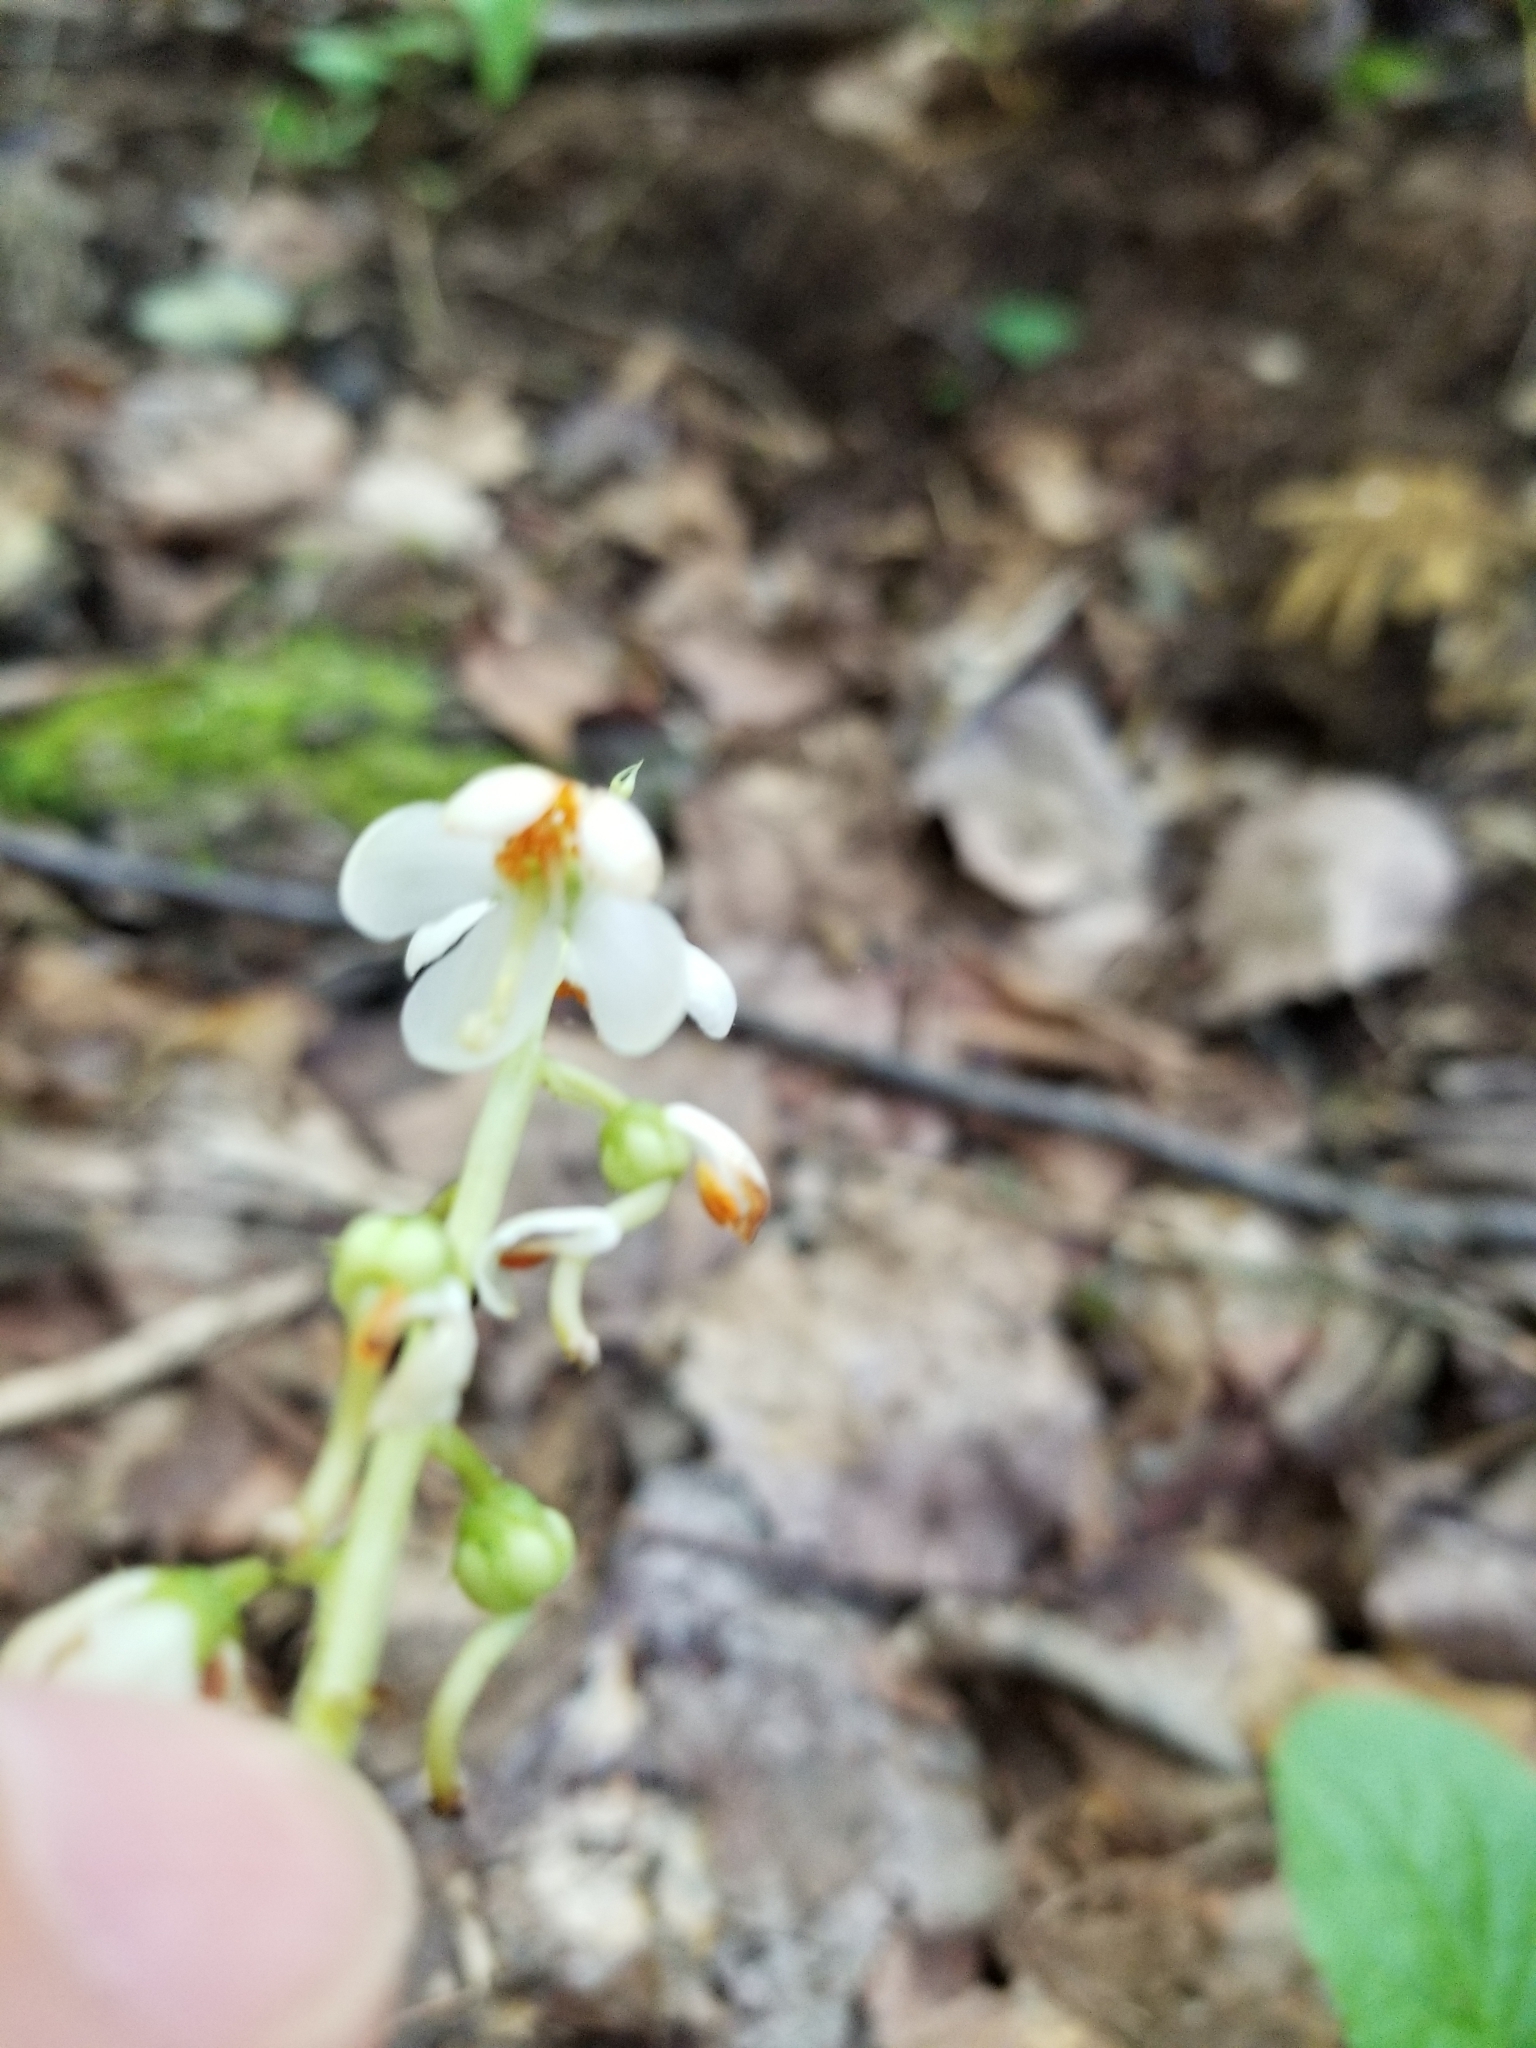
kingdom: Plantae
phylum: Tracheophyta
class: Magnoliopsida
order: Ericales
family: Ericaceae
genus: Pyrola
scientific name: Pyrola elliptica
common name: Shinleaf
